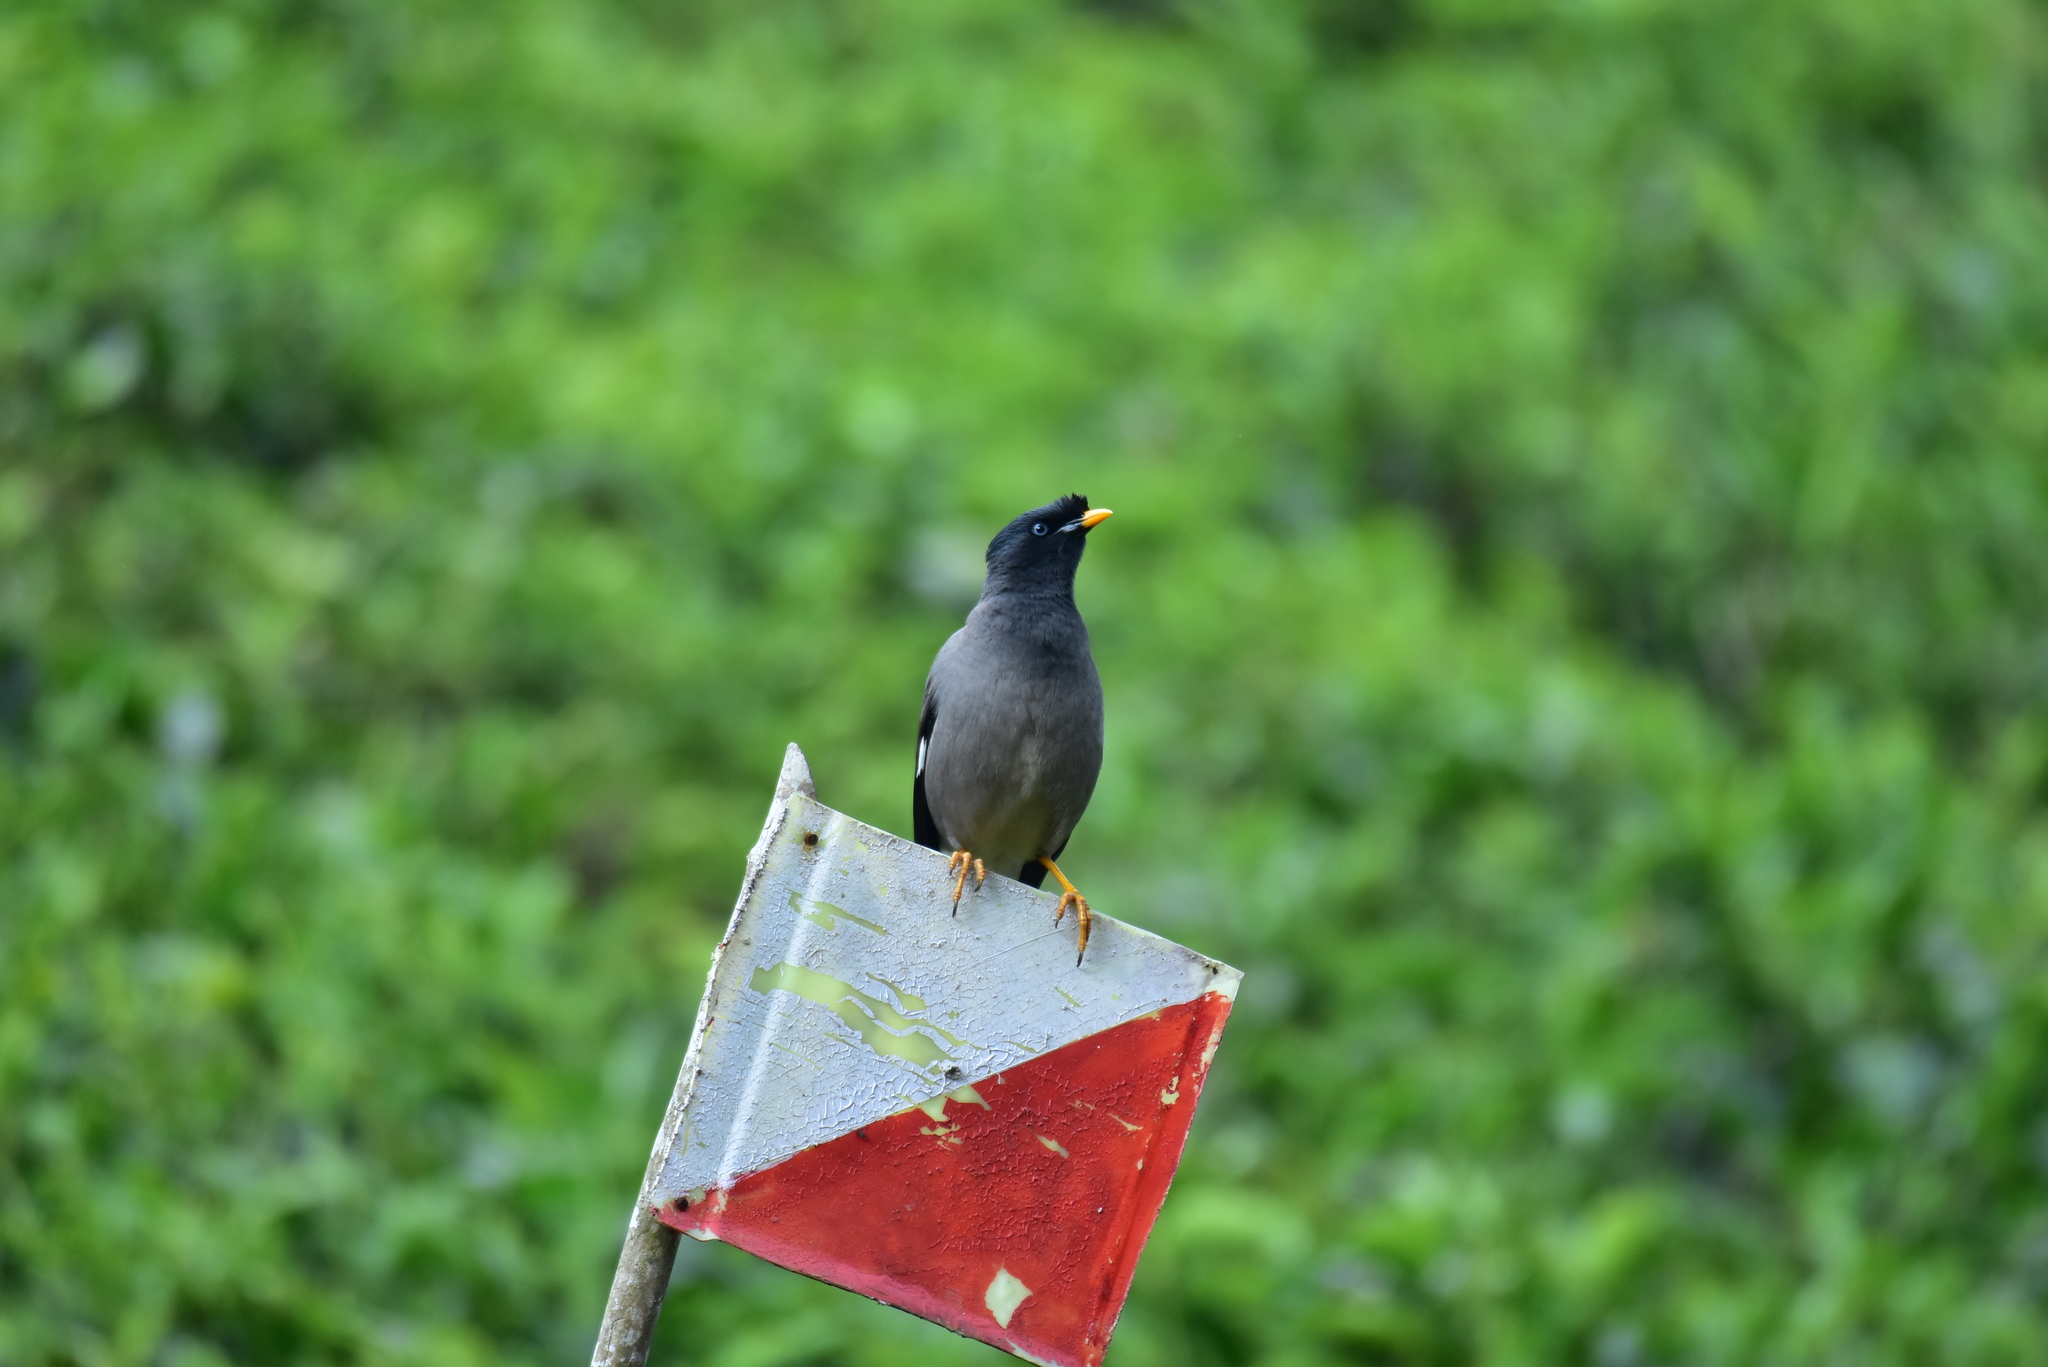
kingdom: Animalia
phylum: Chordata
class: Aves
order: Passeriformes
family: Sturnidae
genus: Acridotheres
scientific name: Acridotheres fuscus
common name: Jungle myna
